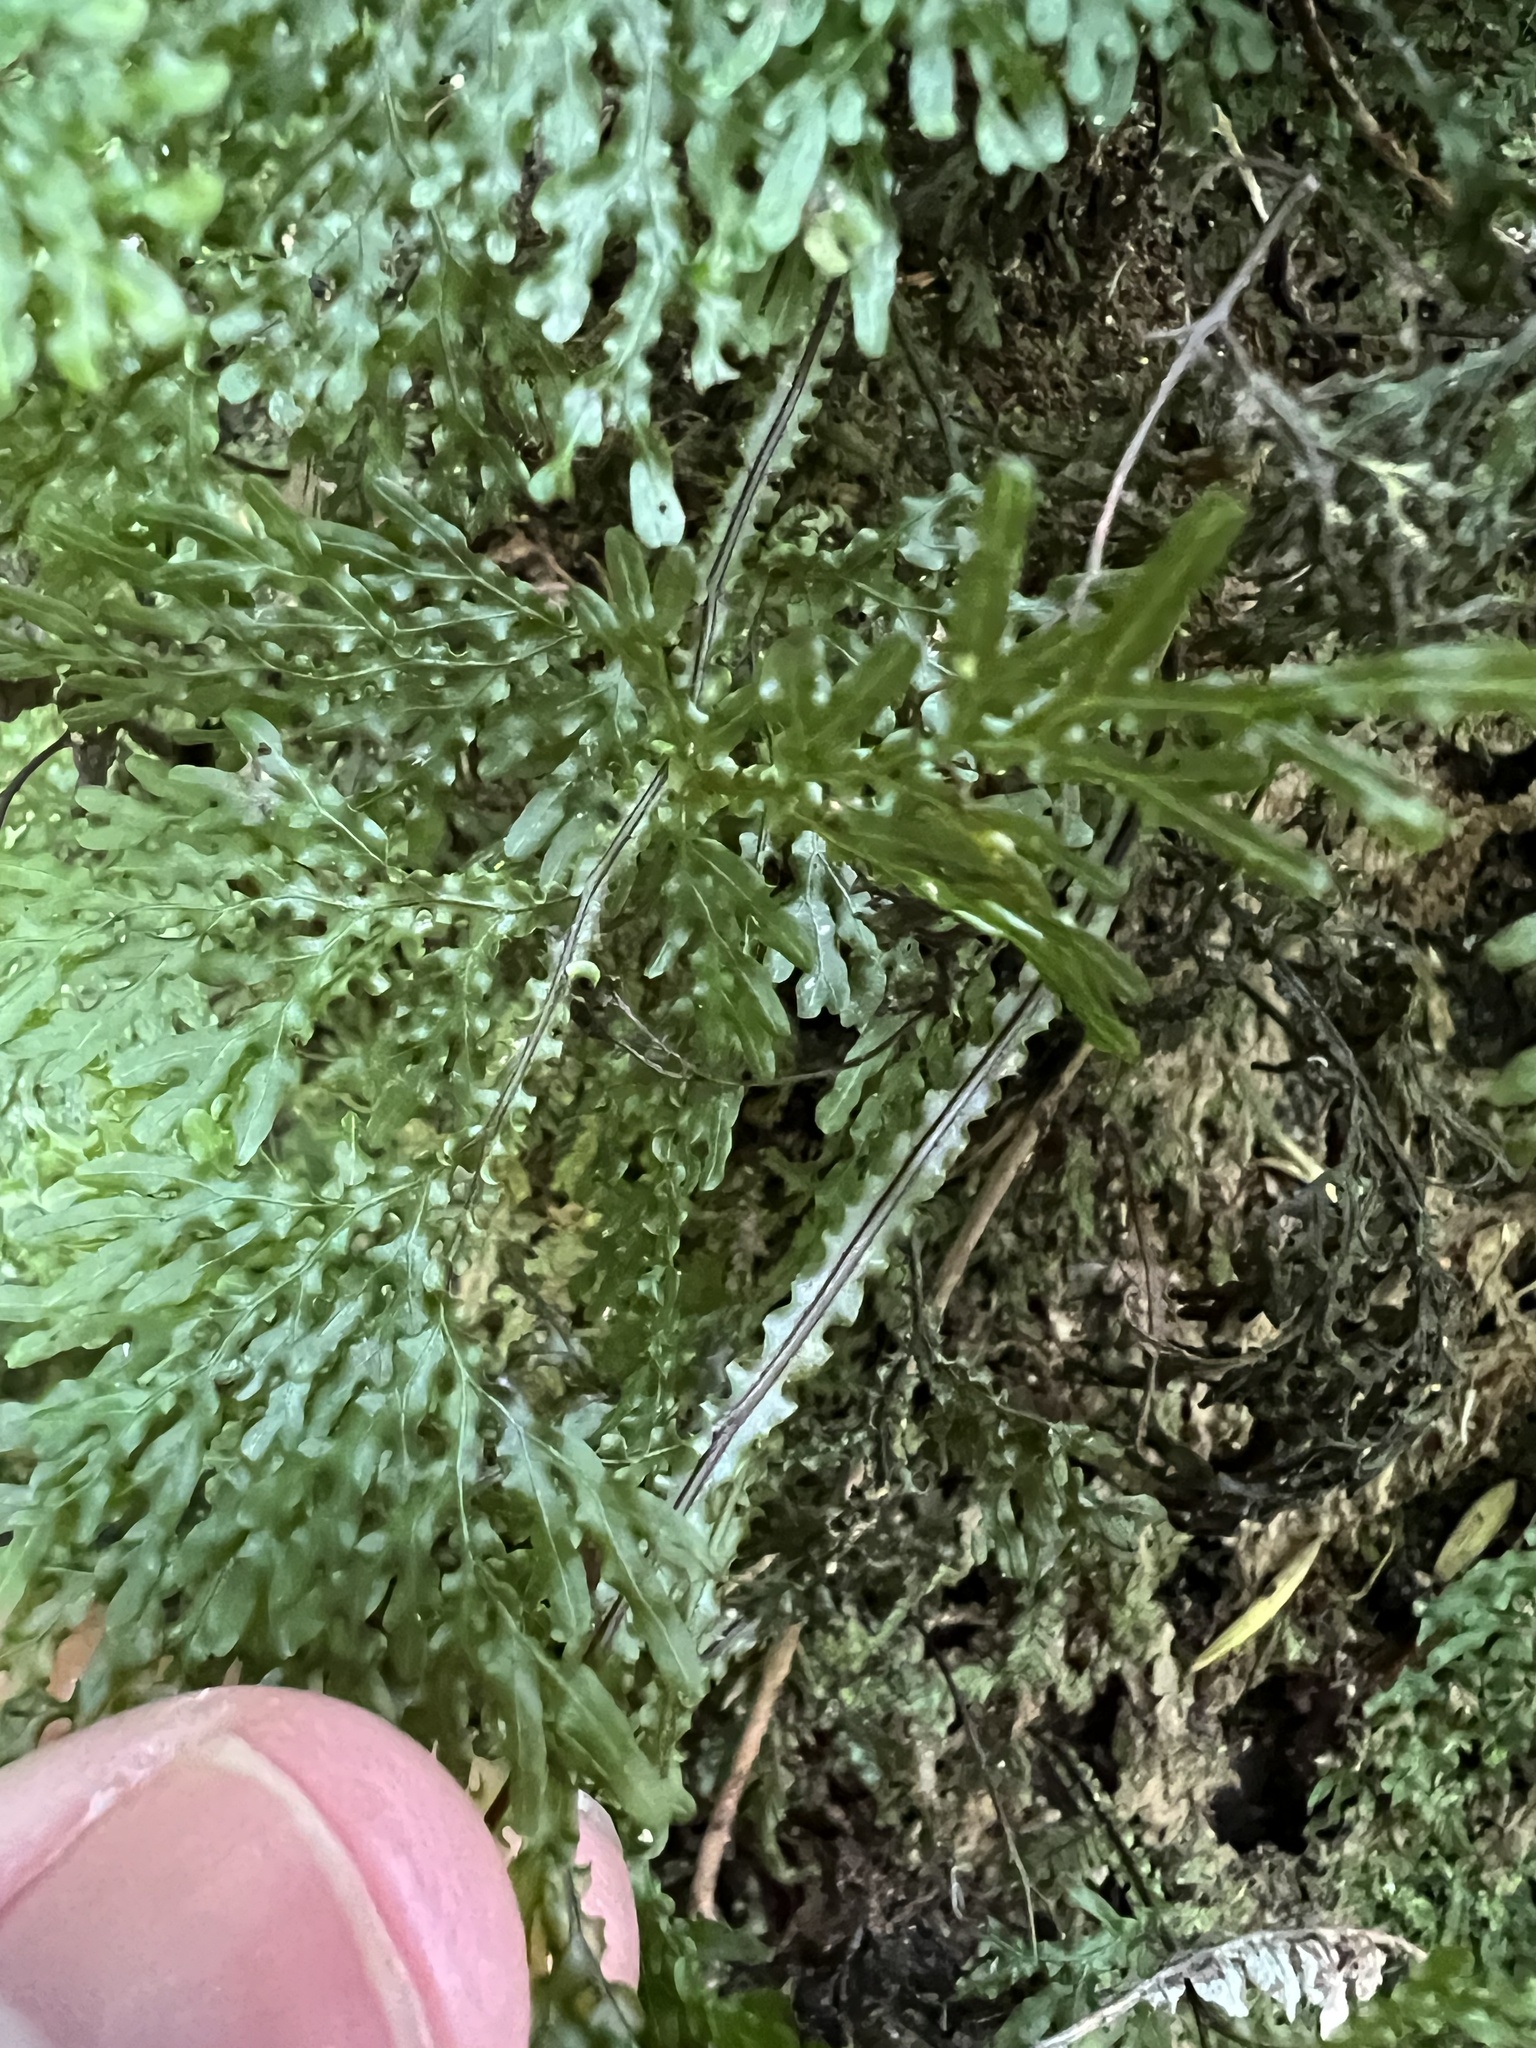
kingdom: Plantae
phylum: Tracheophyta
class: Polypodiopsida
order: Hymenophyllales
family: Hymenophyllaceae
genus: Hymenophyllum
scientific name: Hymenophyllum flexuosum
